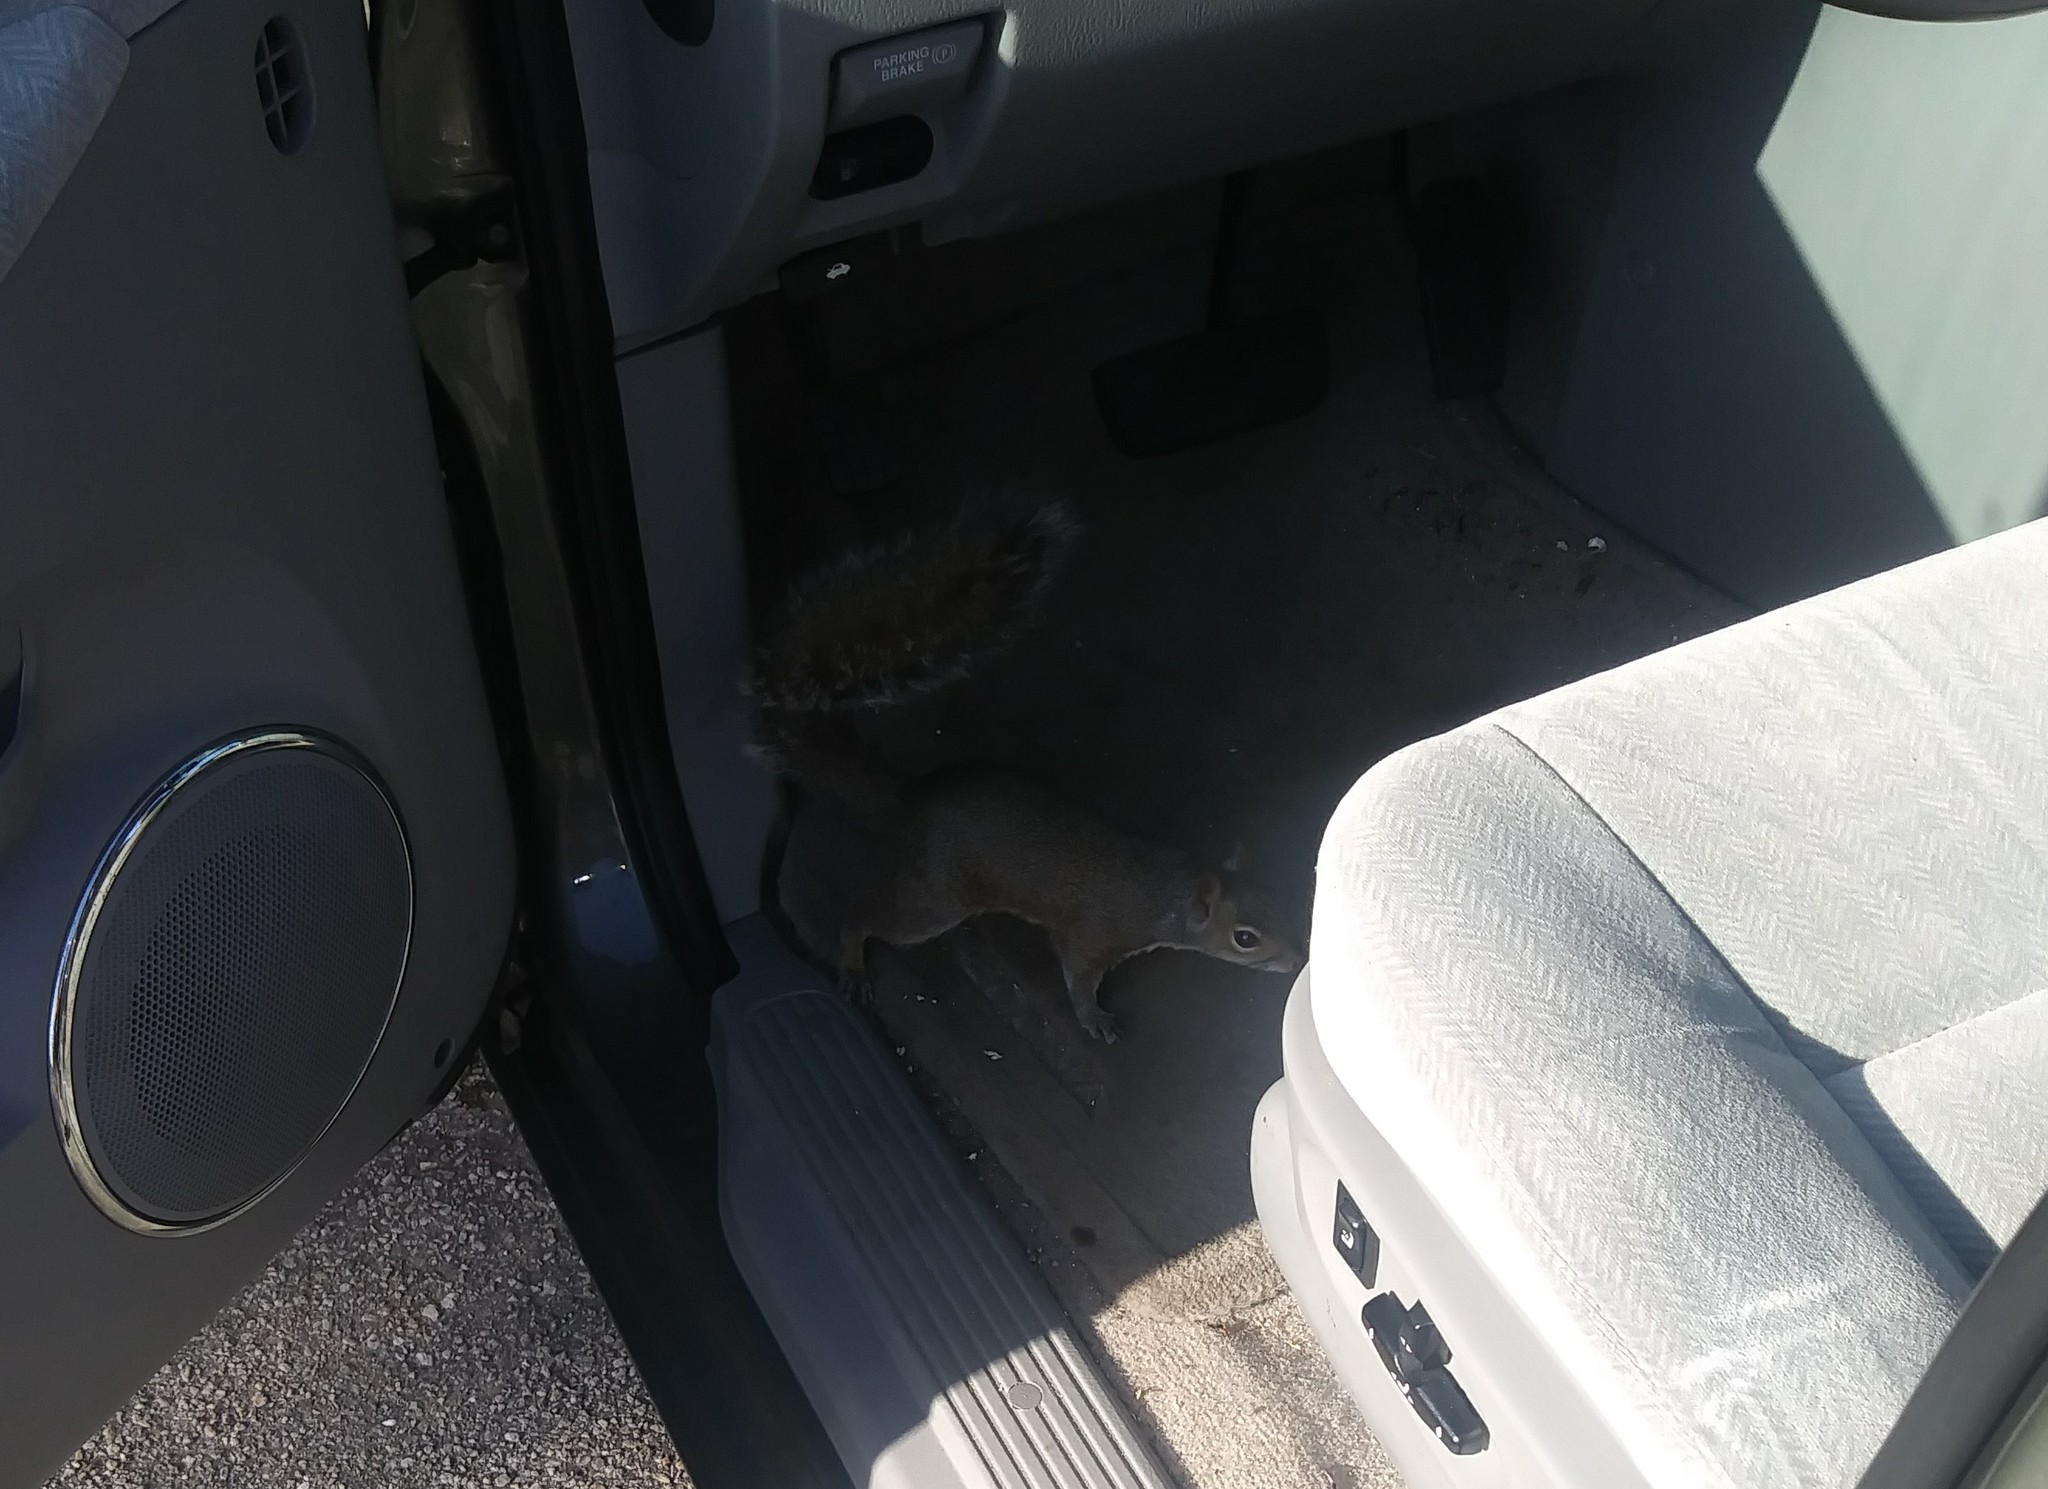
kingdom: Animalia
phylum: Chordata
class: Mammalia
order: Rodentia
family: Sciuridae
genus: Sciurus
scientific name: Sciurus carolinensis
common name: Eastern gray squirrel
